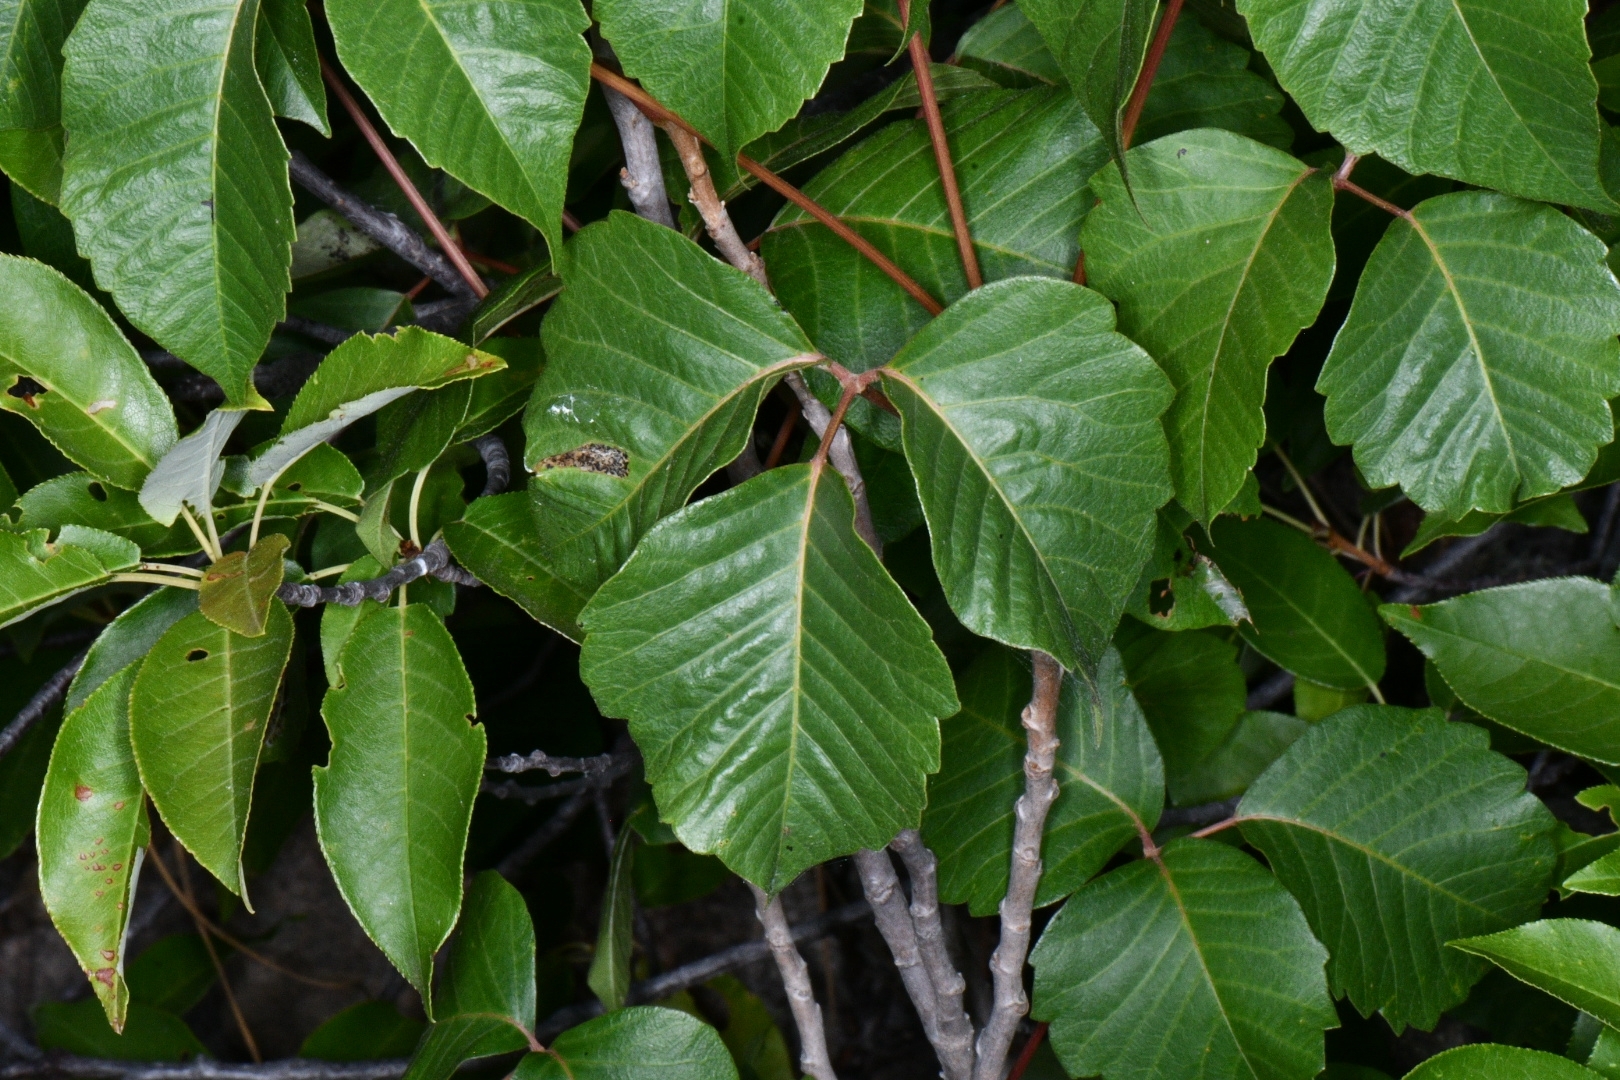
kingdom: Plantae
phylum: Tracheophyta
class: Magnoliopsida
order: Sapindales
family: Anacardiaceae
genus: Toxicodendron
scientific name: Toxicodendron rydbergii
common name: Rydberg's poison-ivy
